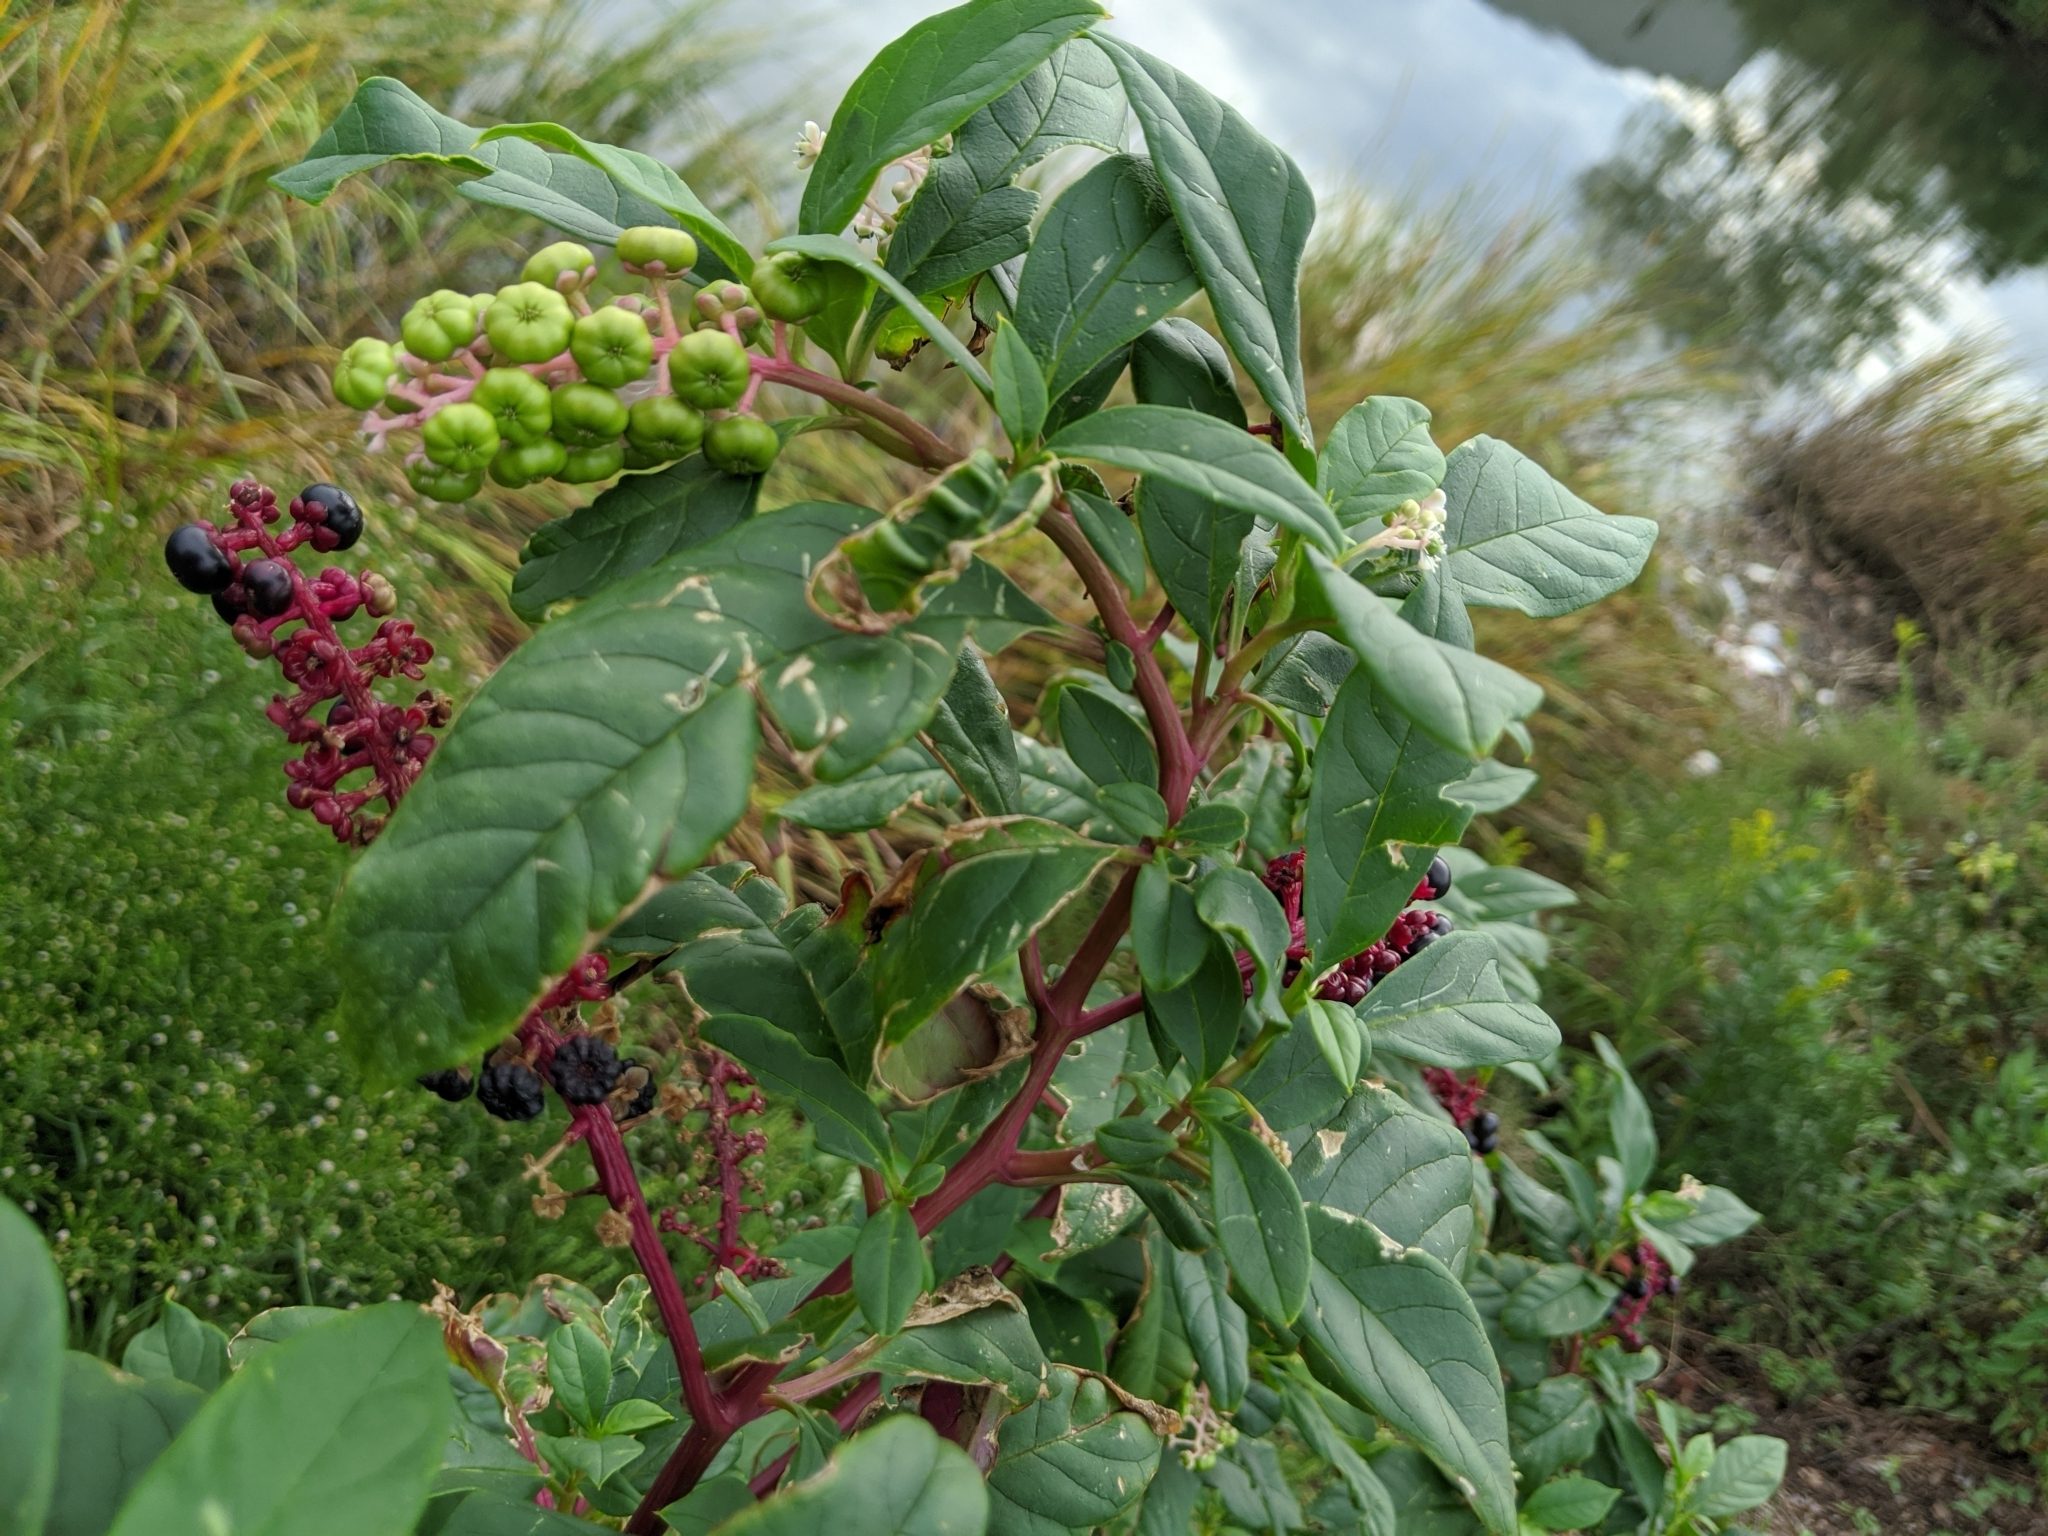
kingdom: Plantae
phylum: Tracheophyta
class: Magnoliopsida
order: Caryophyllales
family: Phytolaccaceae
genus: Phytolacca
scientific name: Phytolacca americana
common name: American pokeweed
